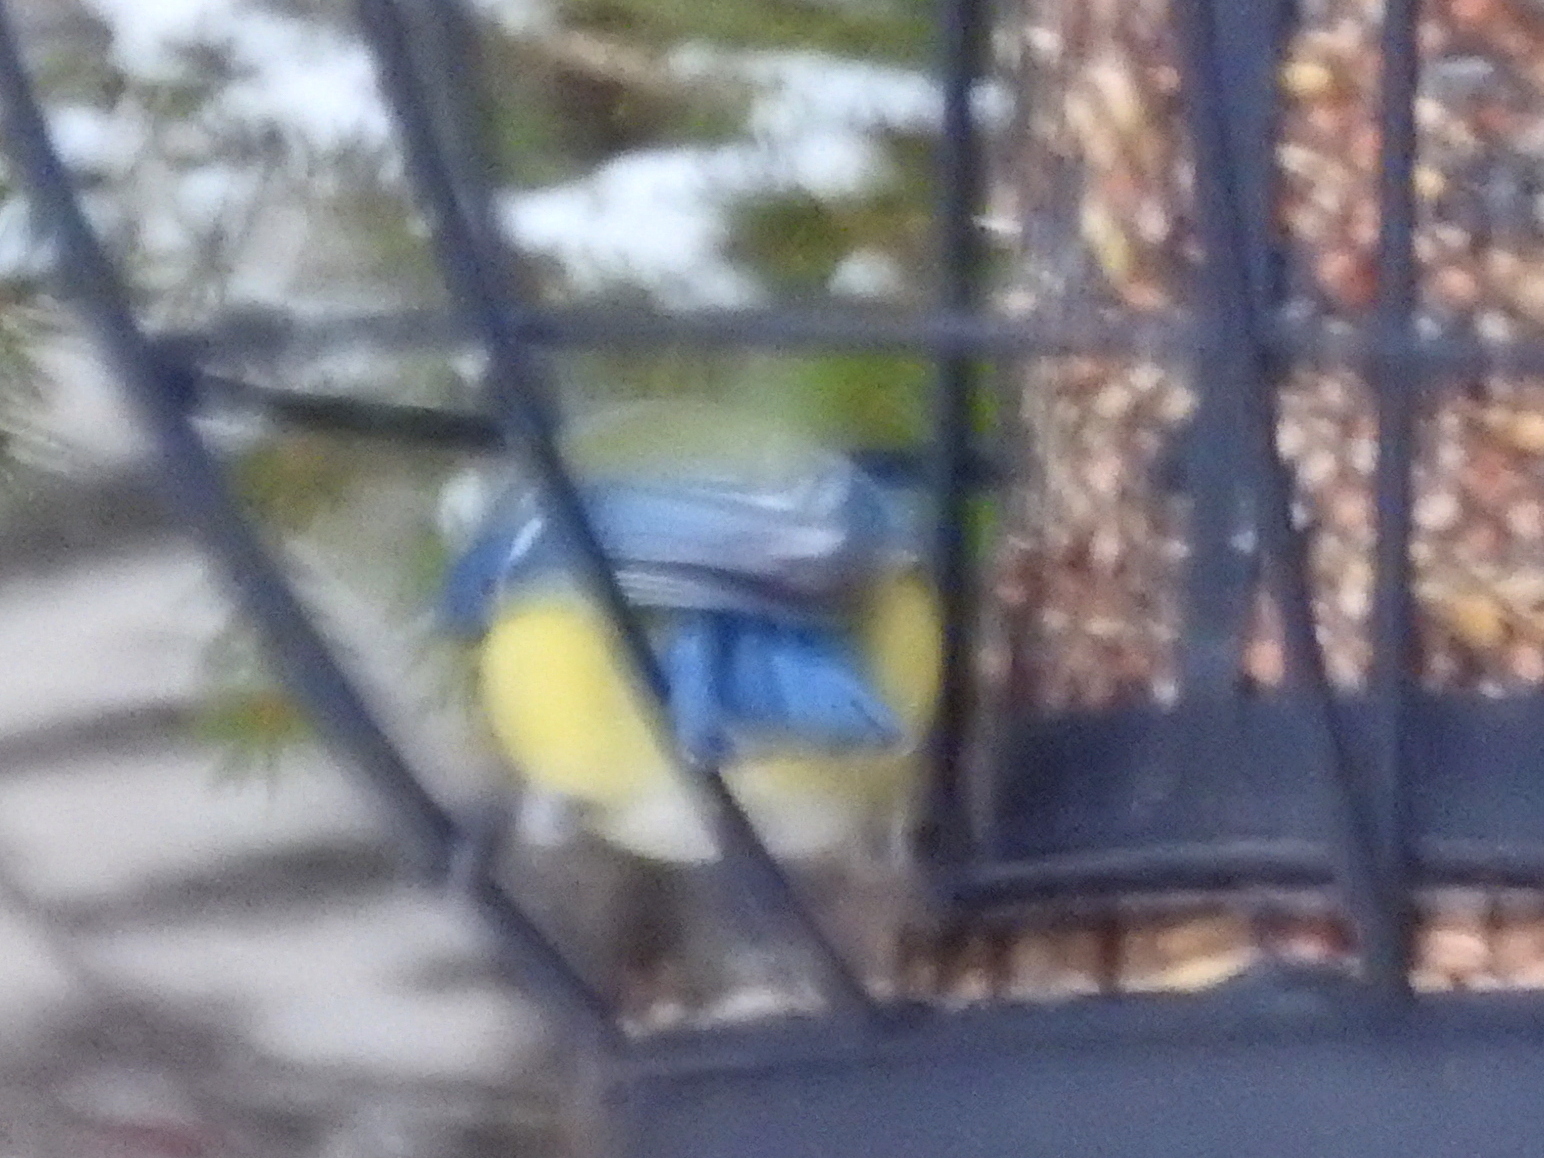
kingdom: Animalia
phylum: Chordata
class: Aves
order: Passeriformes
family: Paridae
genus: Cyanistes
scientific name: Cyanistes caeruleus
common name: Eurasian blue tit
